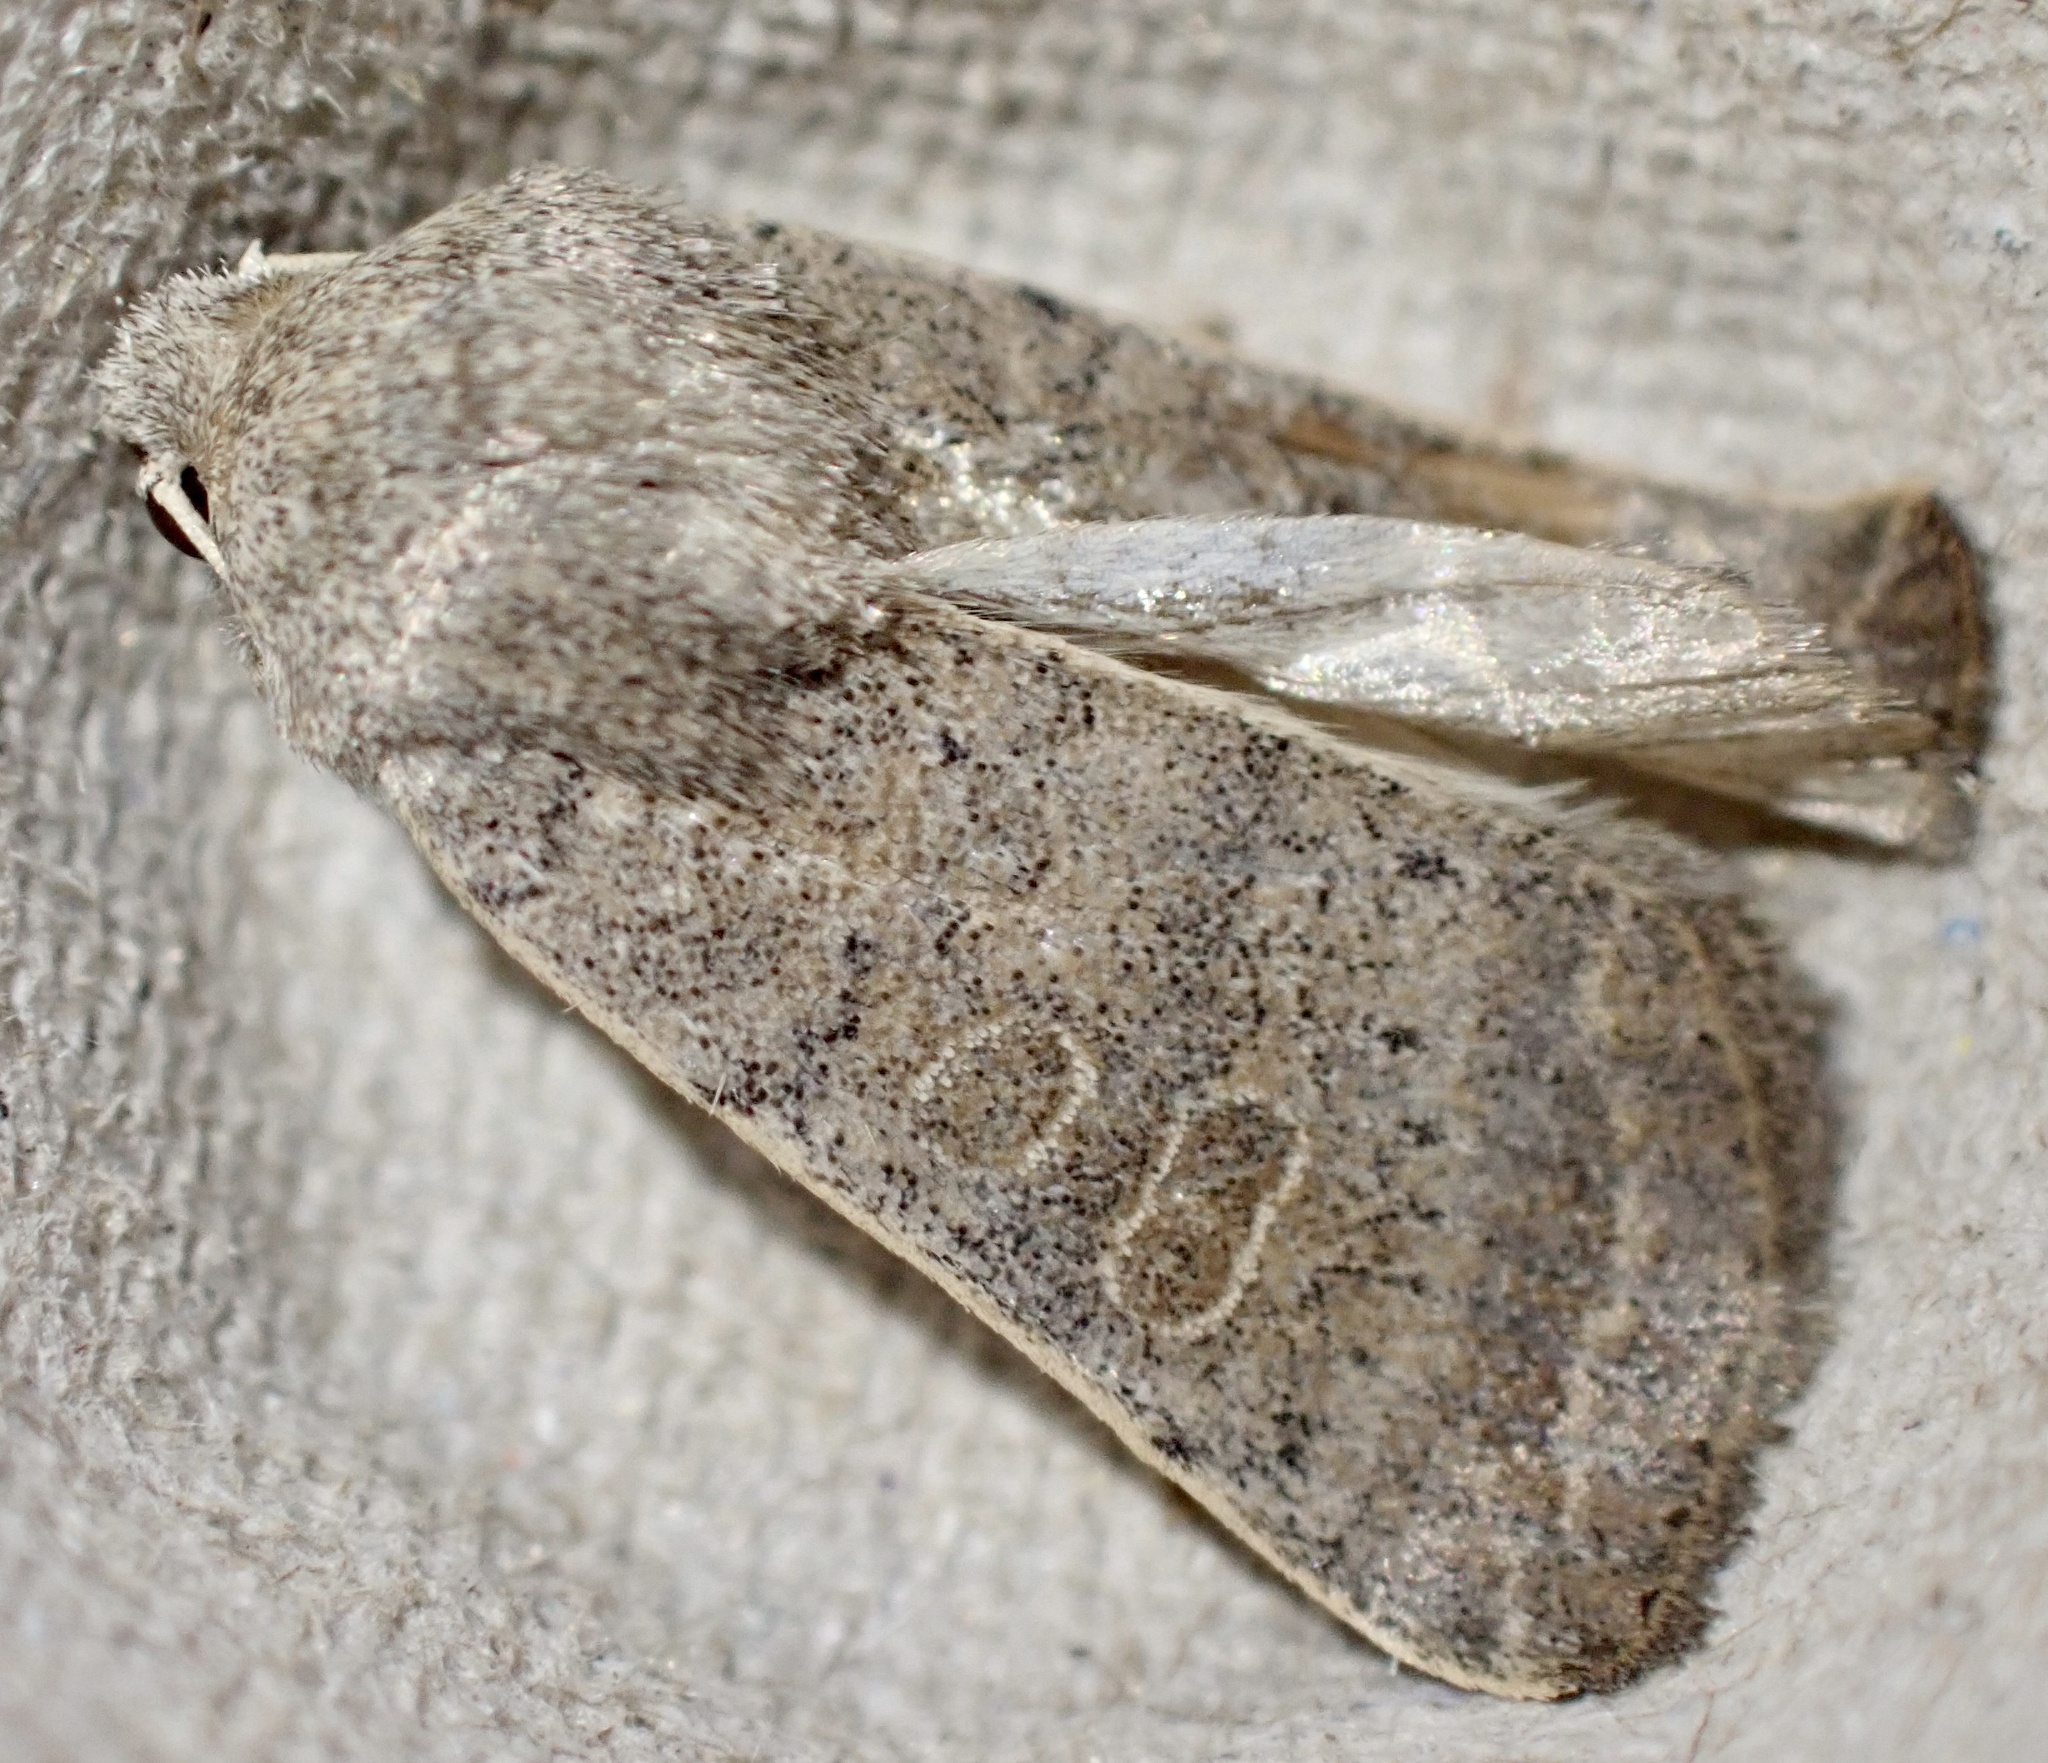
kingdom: Animalia
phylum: Arthropoda
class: Insecta
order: Lepidoptera
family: Noctuidae
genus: Hoplodrina
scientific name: Hoplodrina ambigua
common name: Vine's rustic
